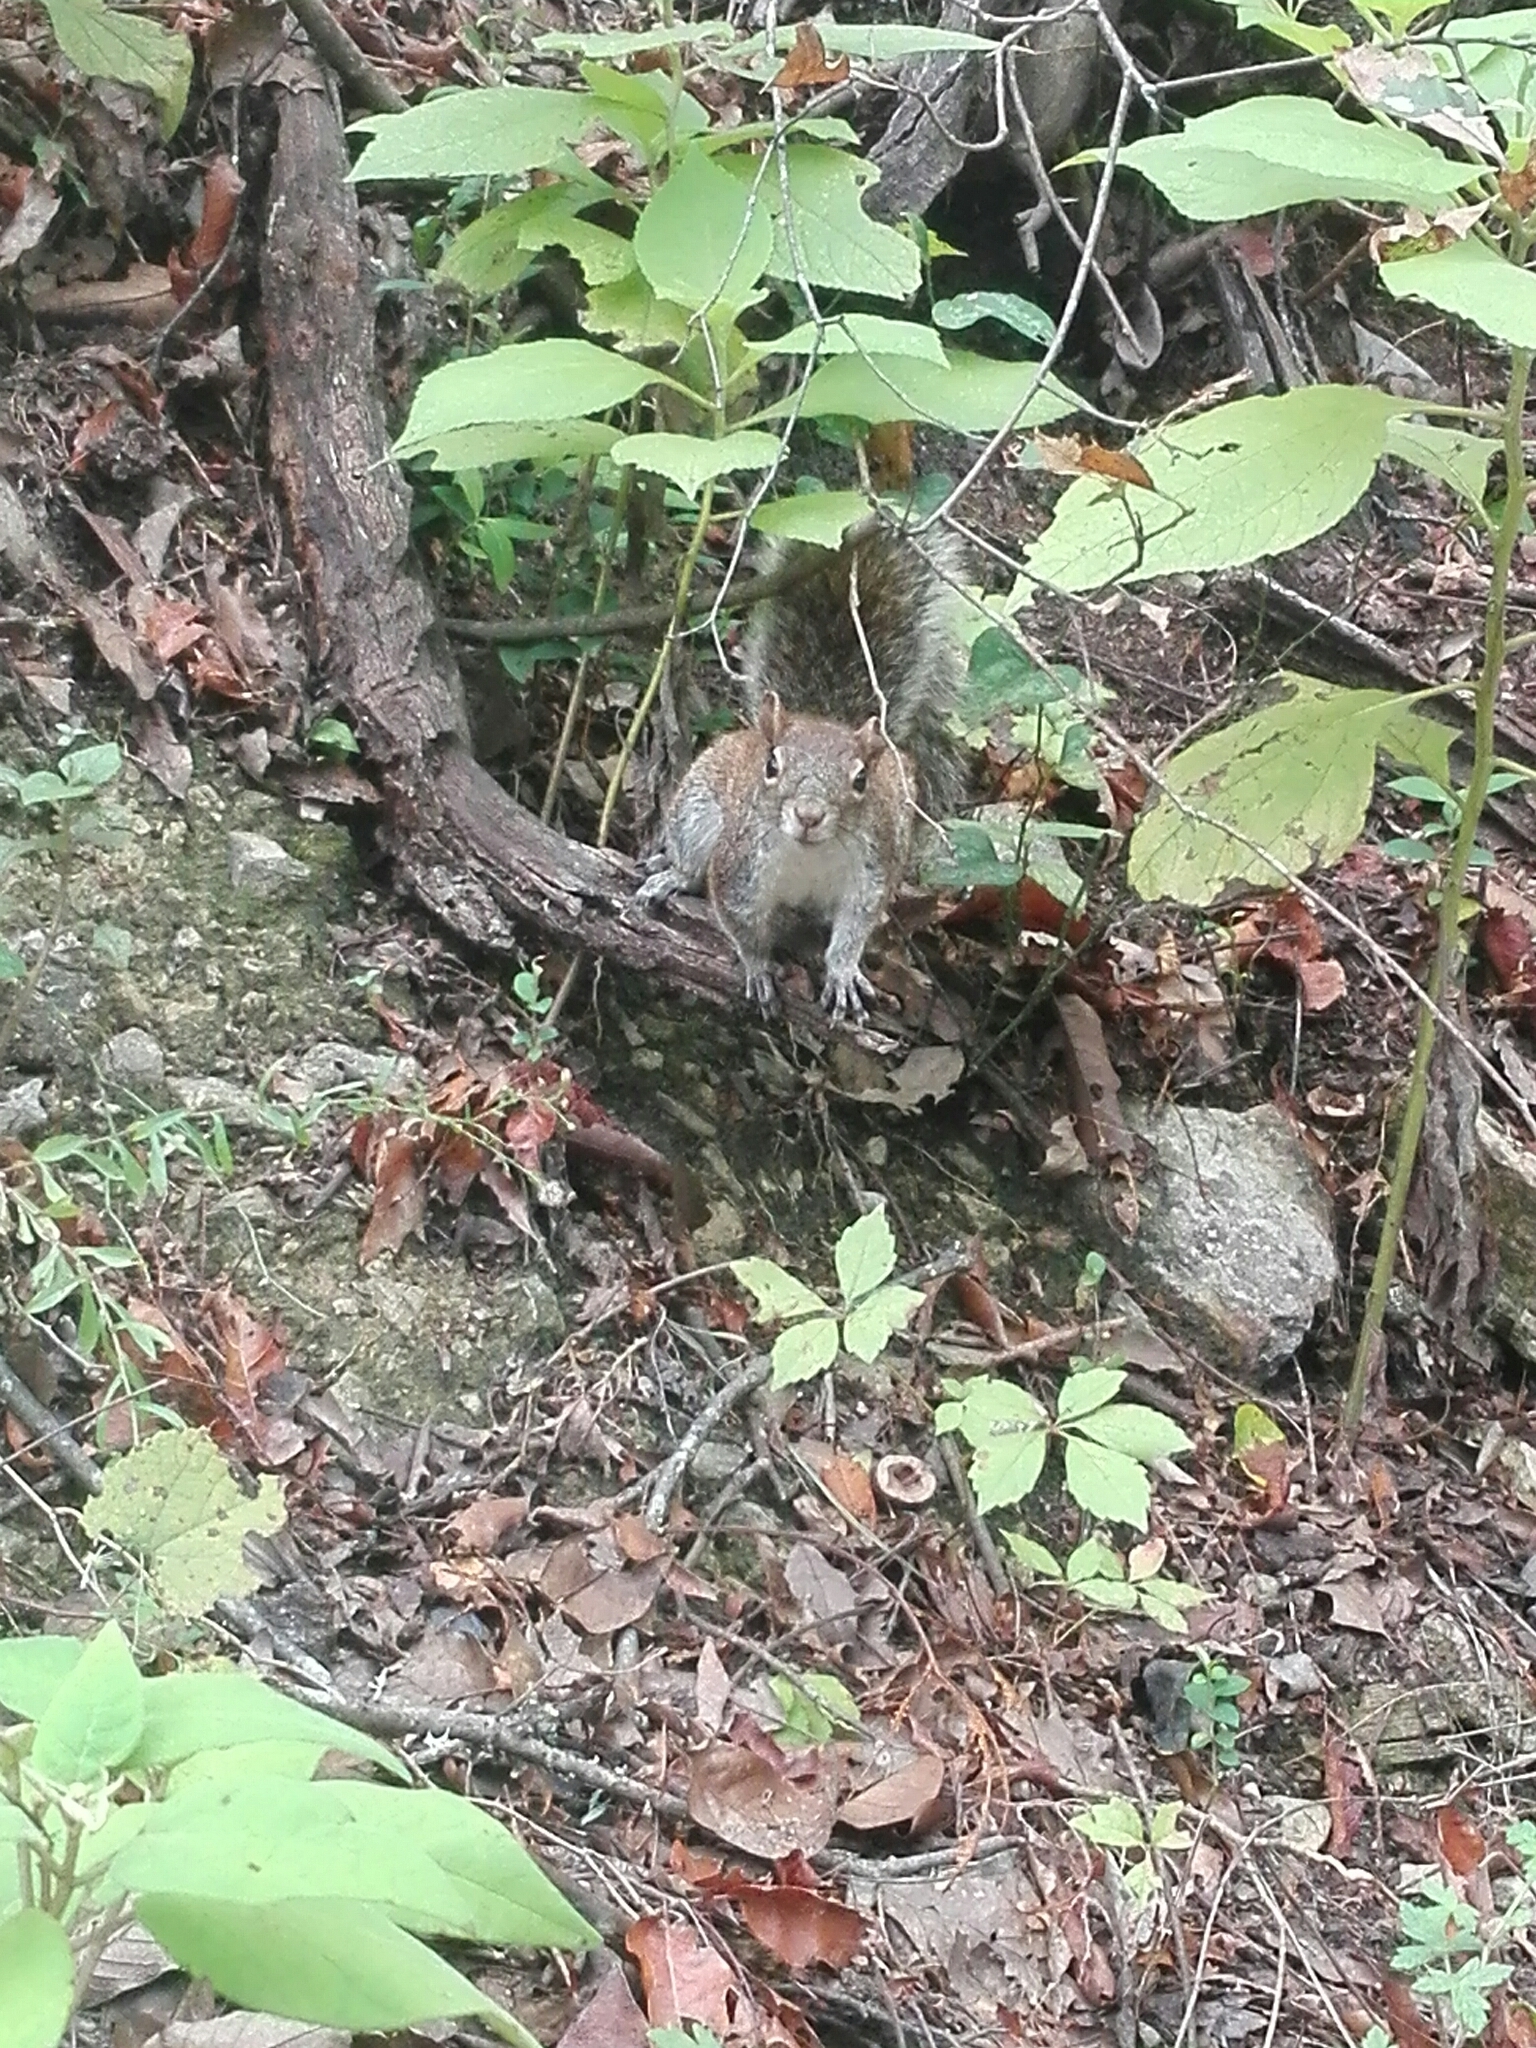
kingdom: Animalia
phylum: Chordata
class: Mammalia
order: Rodentia
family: Sciuridae
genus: Sciurus
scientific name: Sciurus alleni
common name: Allen's squirrel
